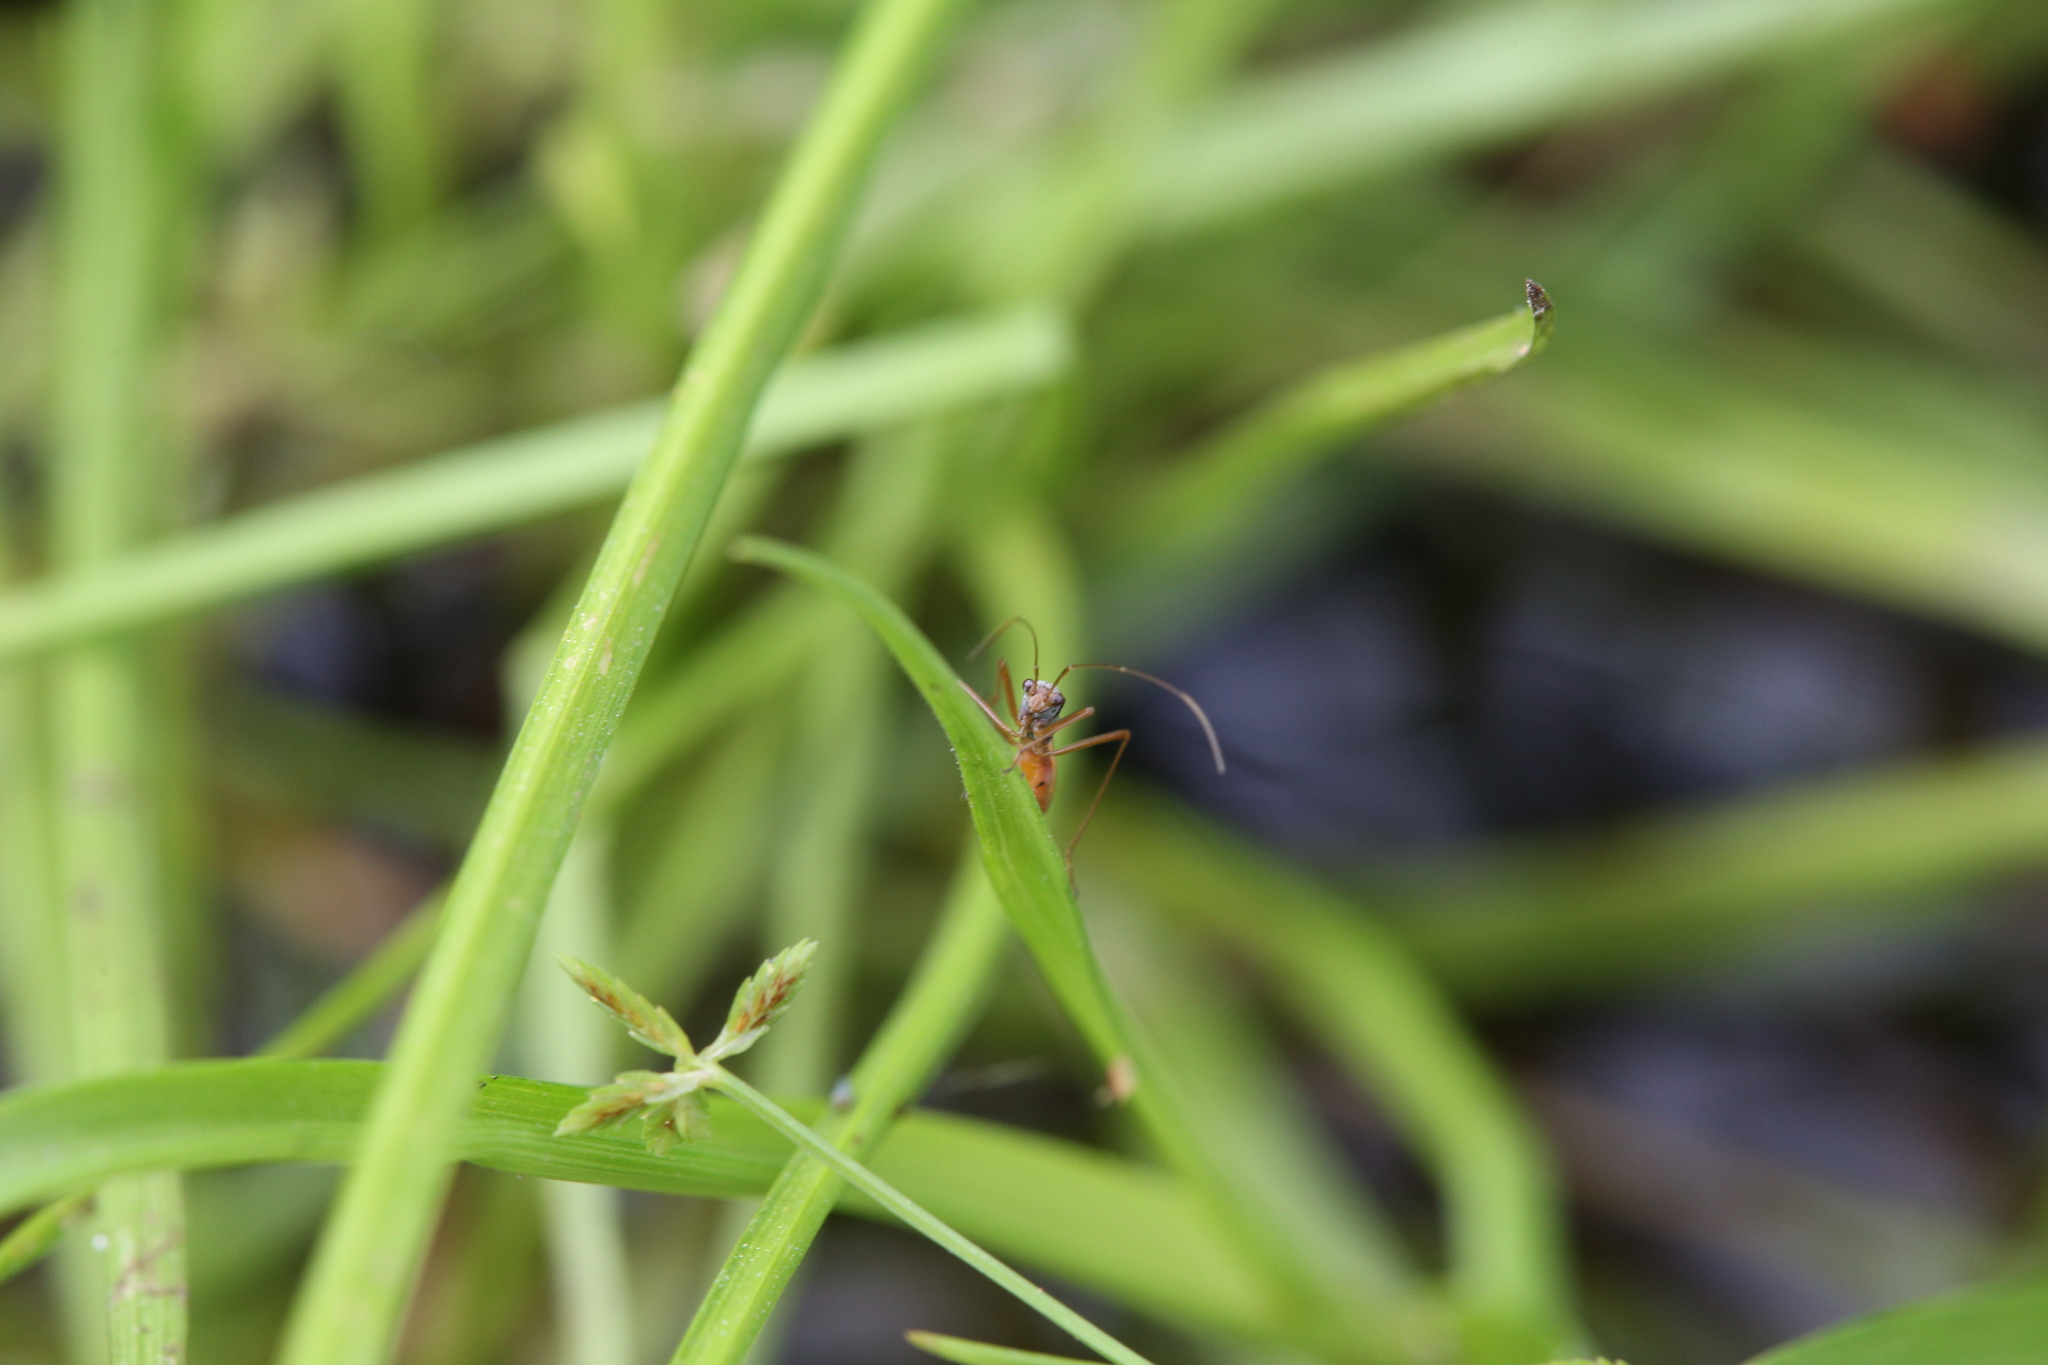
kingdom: Animalia
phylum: Arthropoda
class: Insecta
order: Hemiptera
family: Colobathristidae
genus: Phaenacantha
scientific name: Phaenacantha australiae
